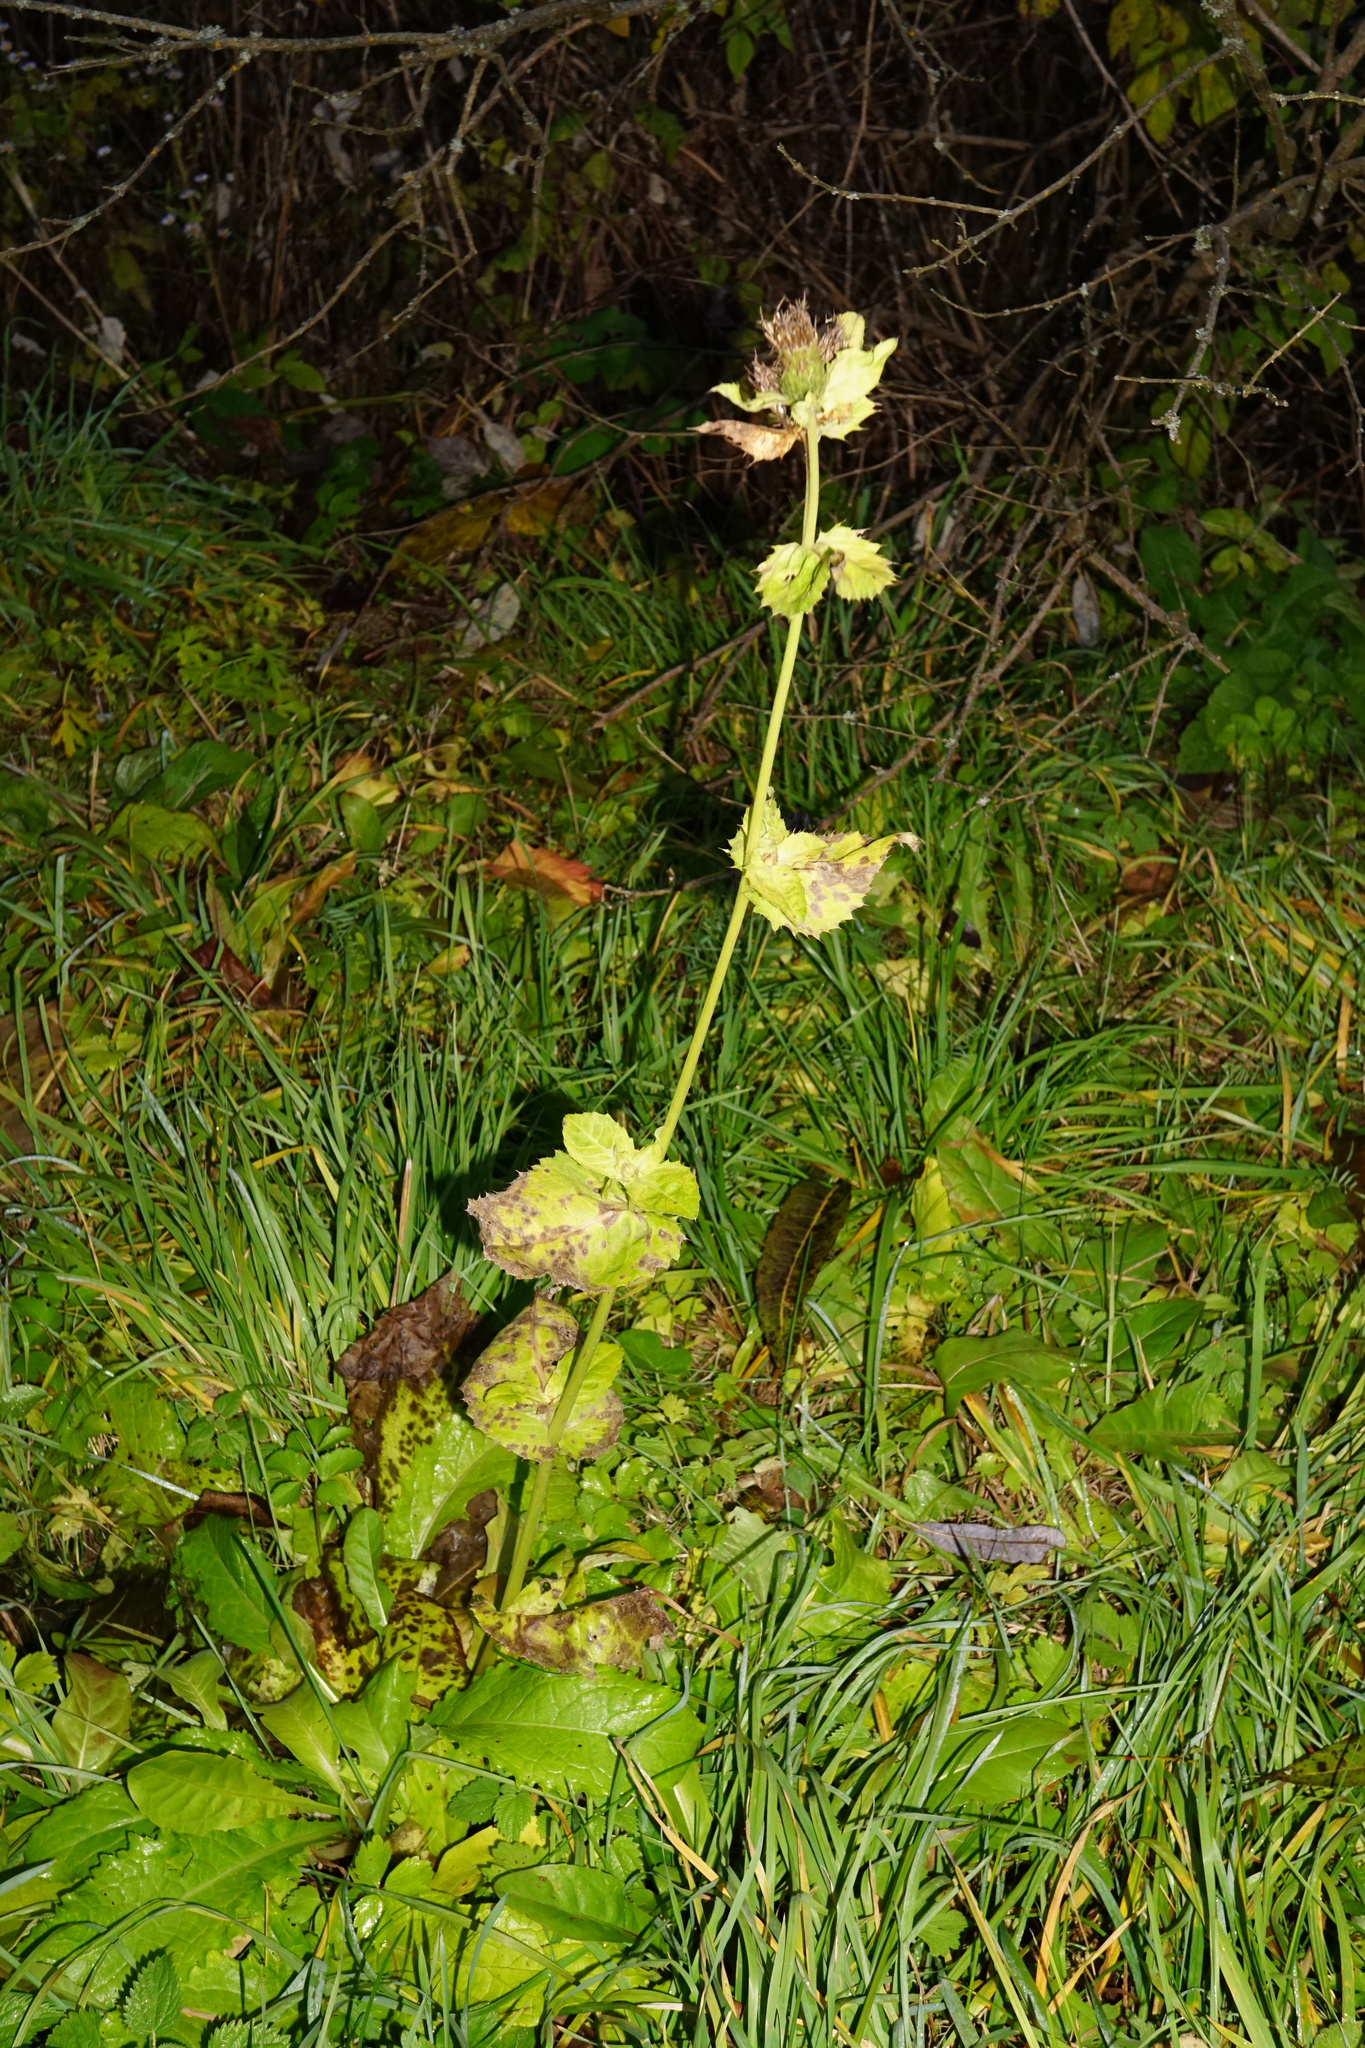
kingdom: Plantae
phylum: Tracheophyta
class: Magnoliopsida
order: Asterales
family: Asteraceae
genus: Cirsium
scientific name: Cirsium oleraceum
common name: Cabbage thistle
